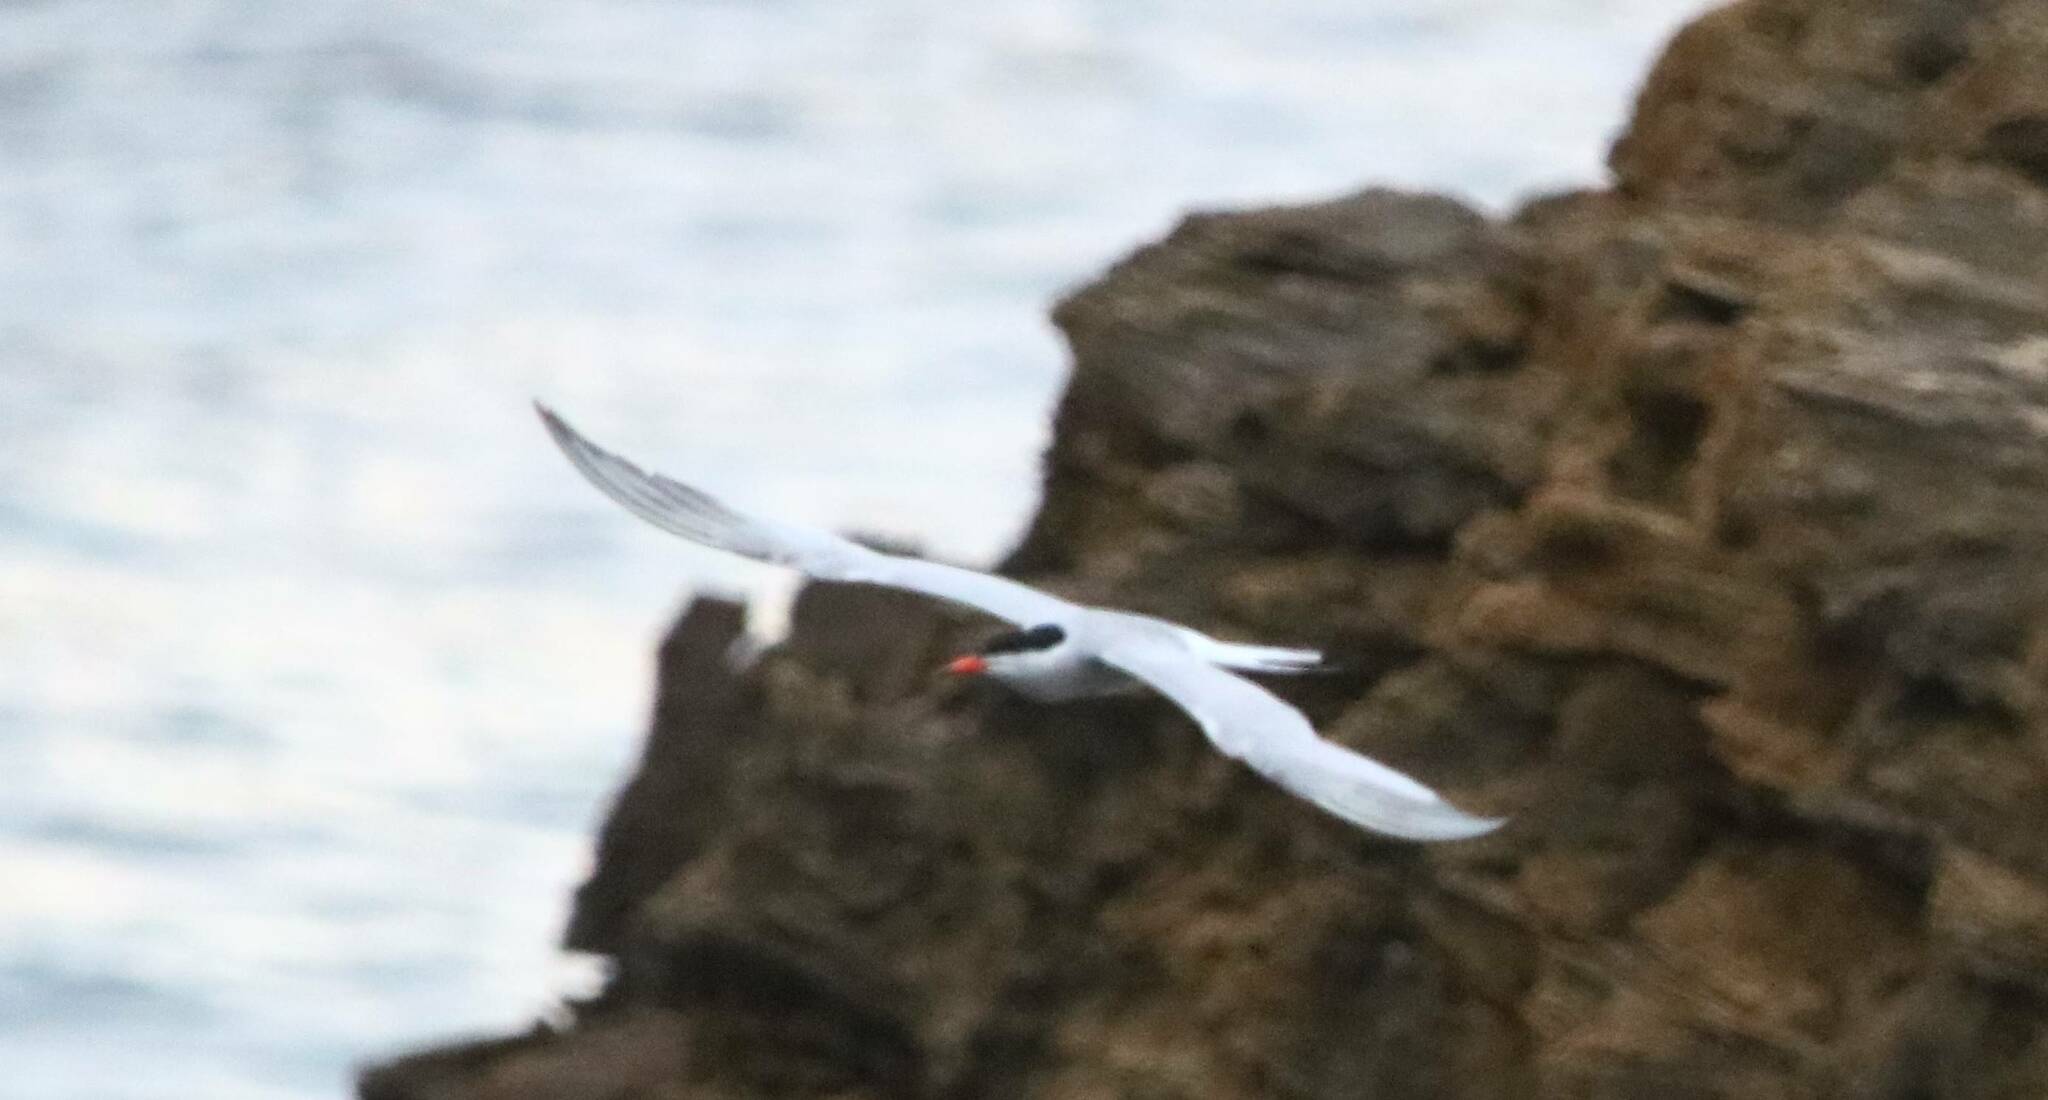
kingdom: Animalia
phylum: Chordata
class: Aves
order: Charadriiformes
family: Laridae
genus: Sterna
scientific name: Sterna hirundo
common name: Common tern
